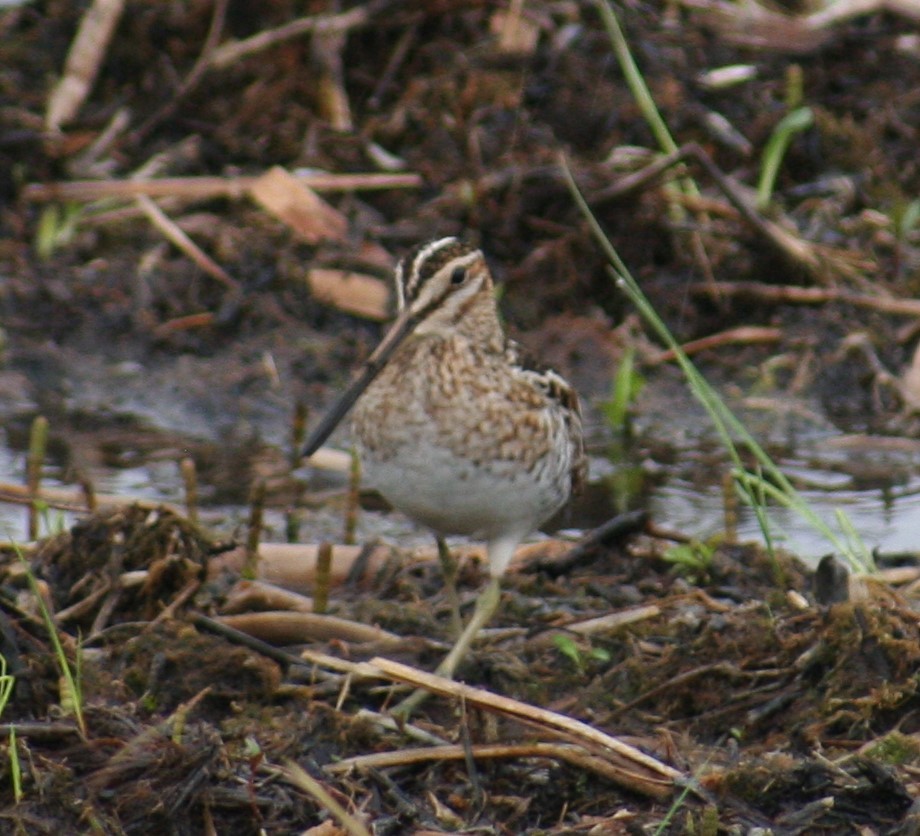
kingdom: Animalia
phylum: Chordata
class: Aves
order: Charadriiformes
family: Scolopacidae
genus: Gallinago
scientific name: Gallinago delicata
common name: Wilson's snipe
